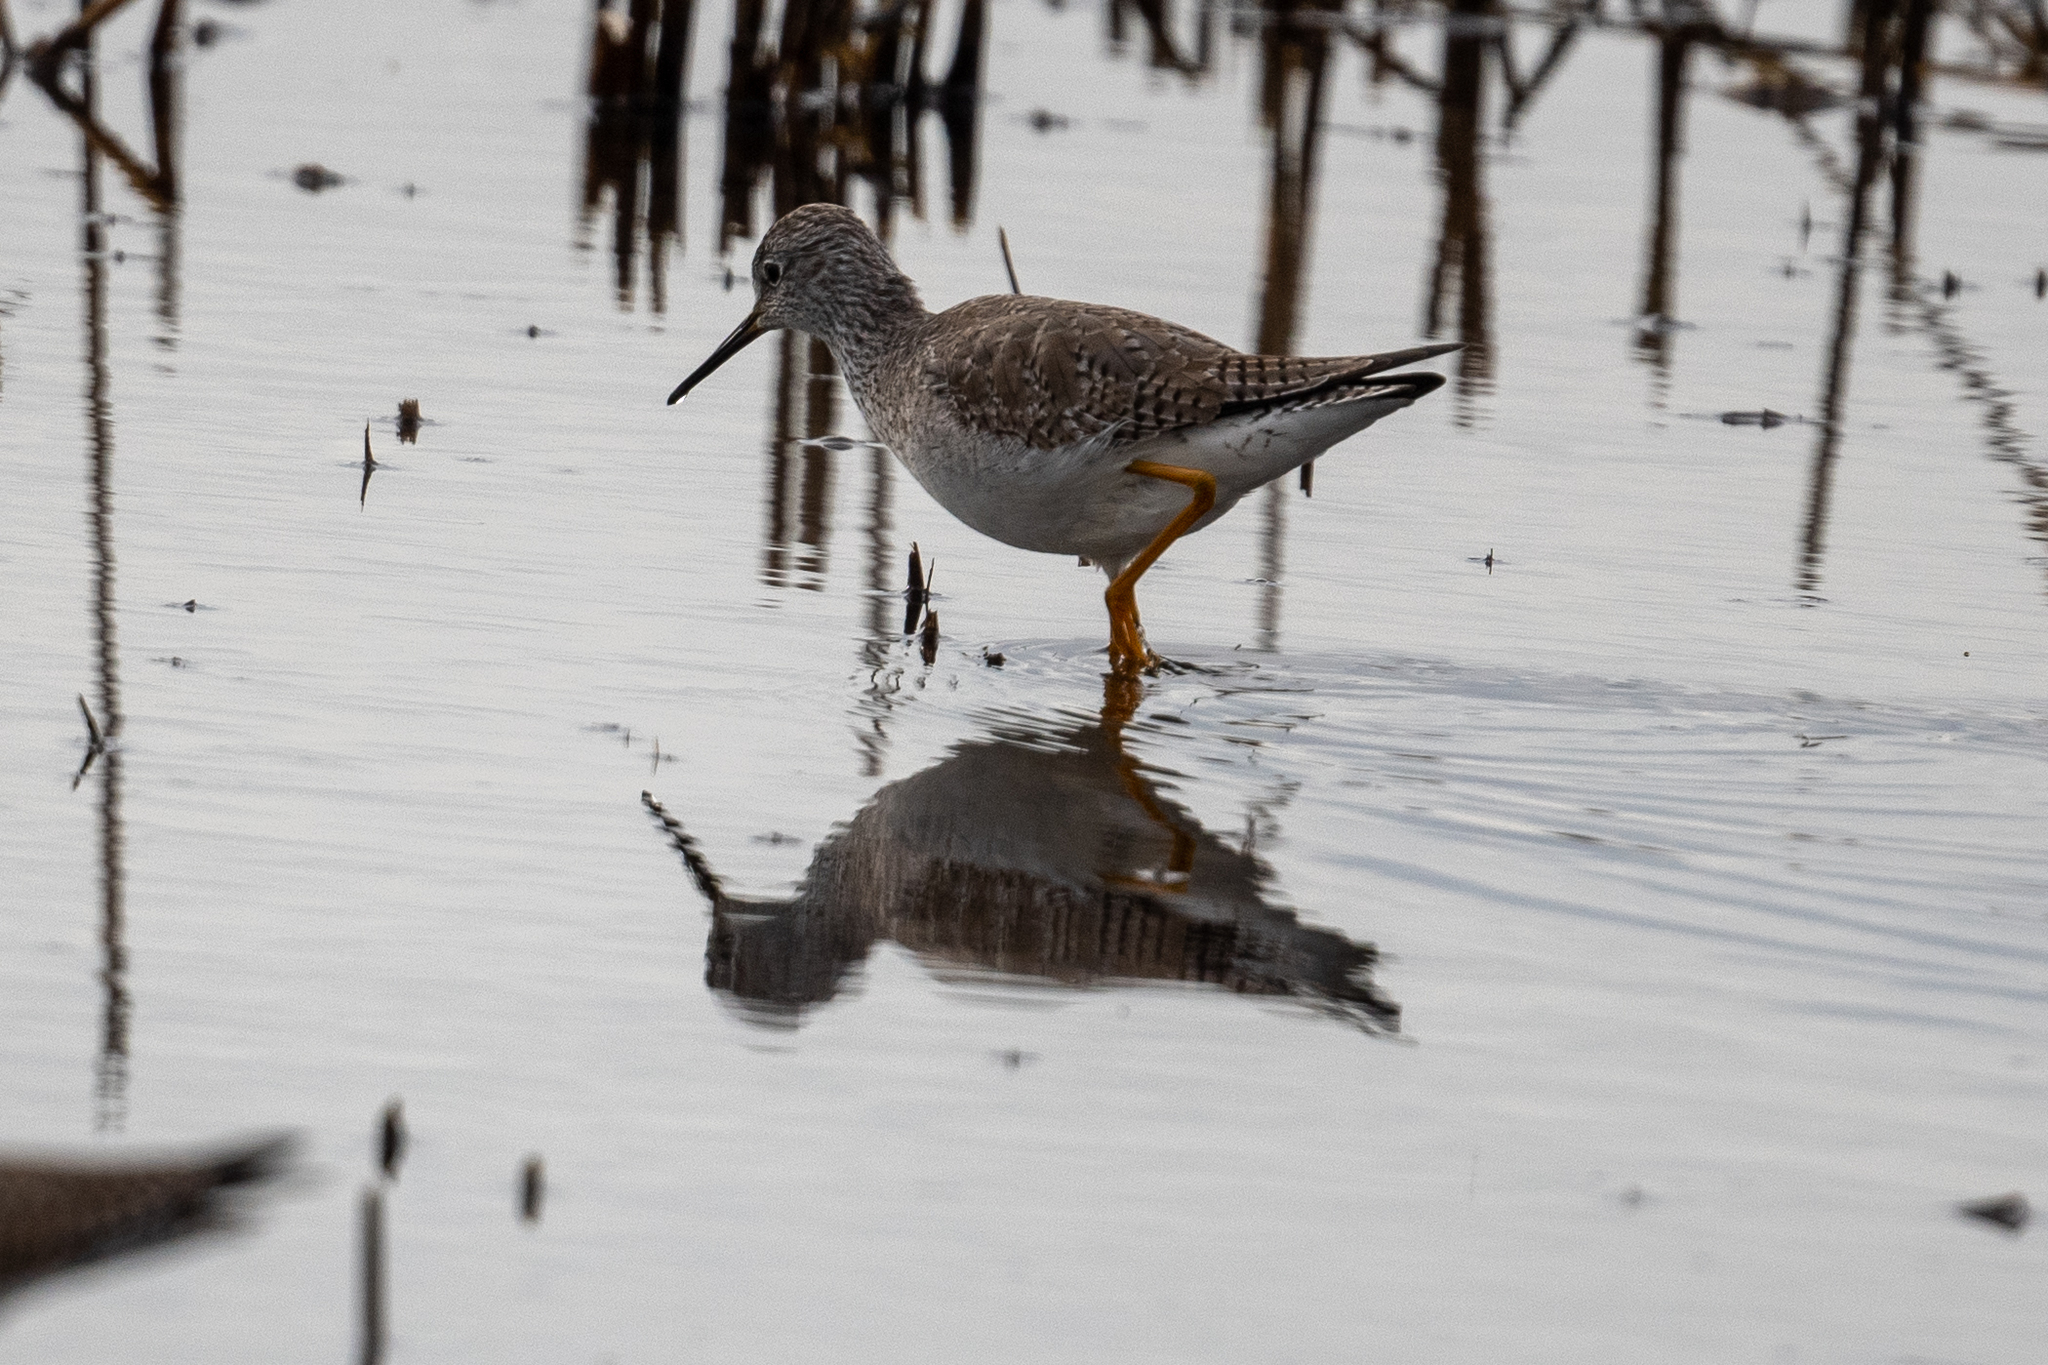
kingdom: Animalia
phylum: Chordata
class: Aves
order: Charadriiformes
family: Scolopacidae
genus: Tringa
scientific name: Tringa melanoleuca
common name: Greater yellowlegs
